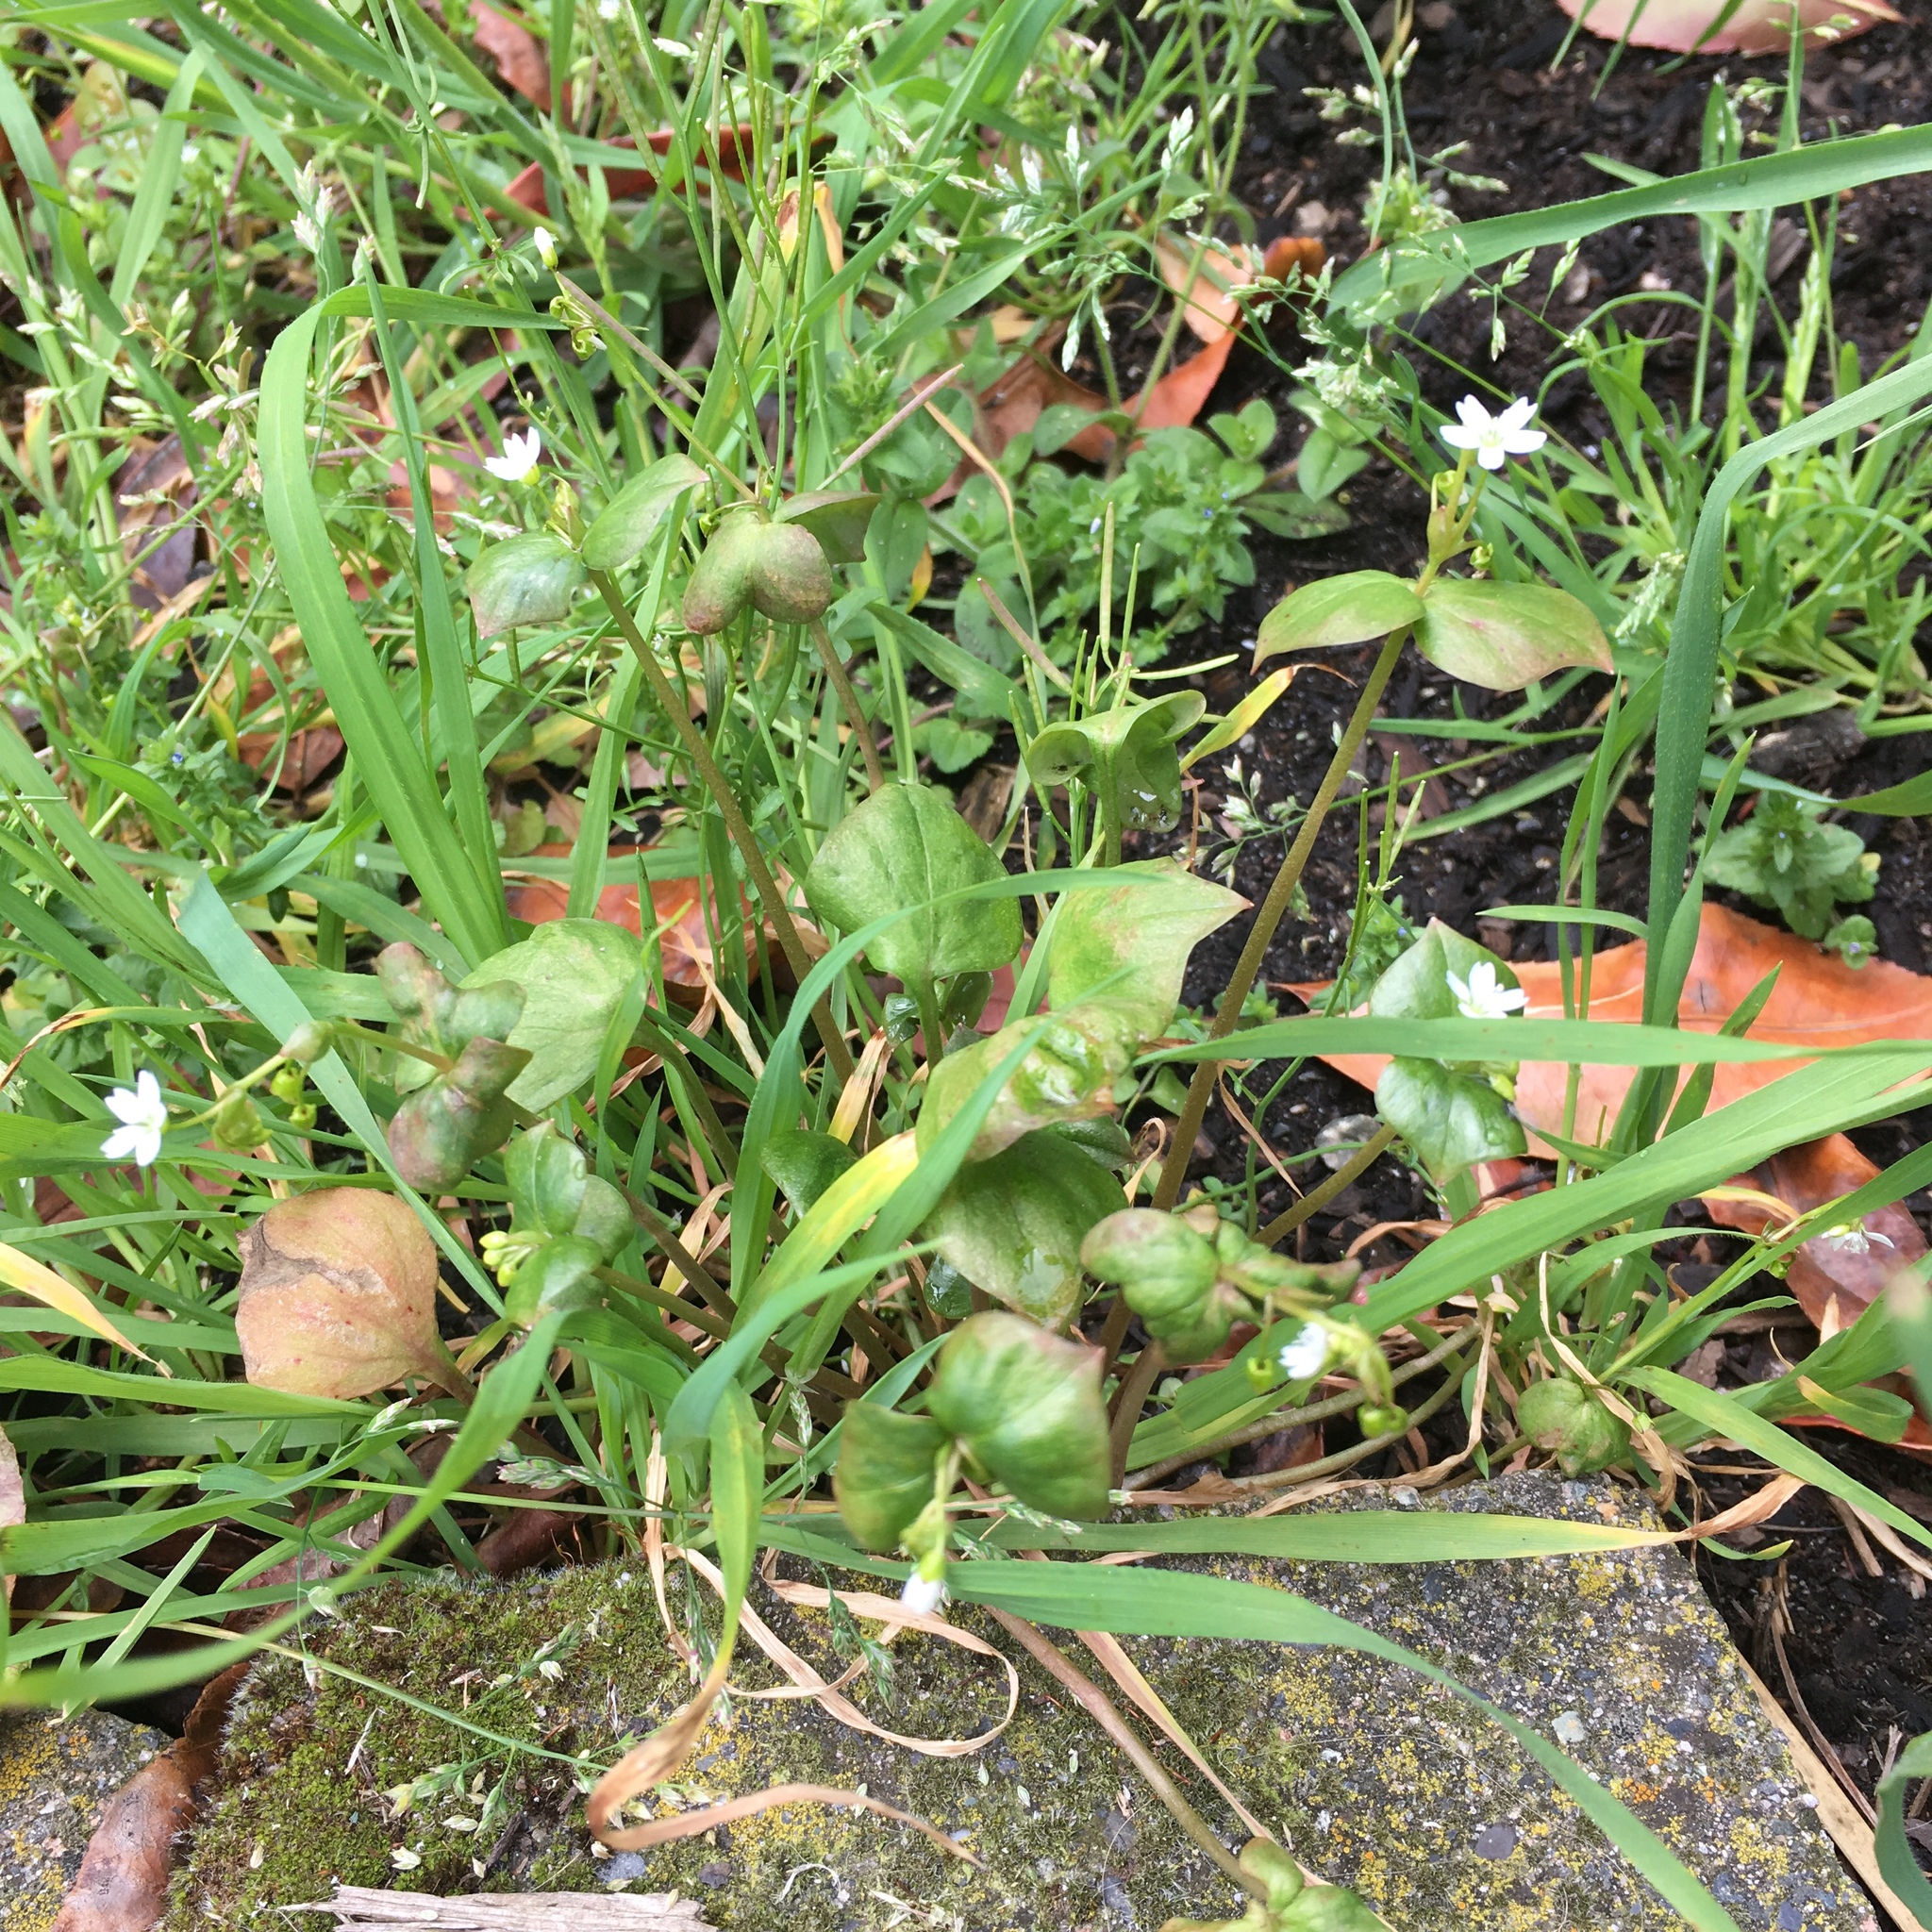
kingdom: Plantae
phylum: Tracheophyta
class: Magnoliopsida
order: Caryophyllales
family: Montiaceae
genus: Claytonia
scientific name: Claytonia washingtoniana
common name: Lake washington claytonia
